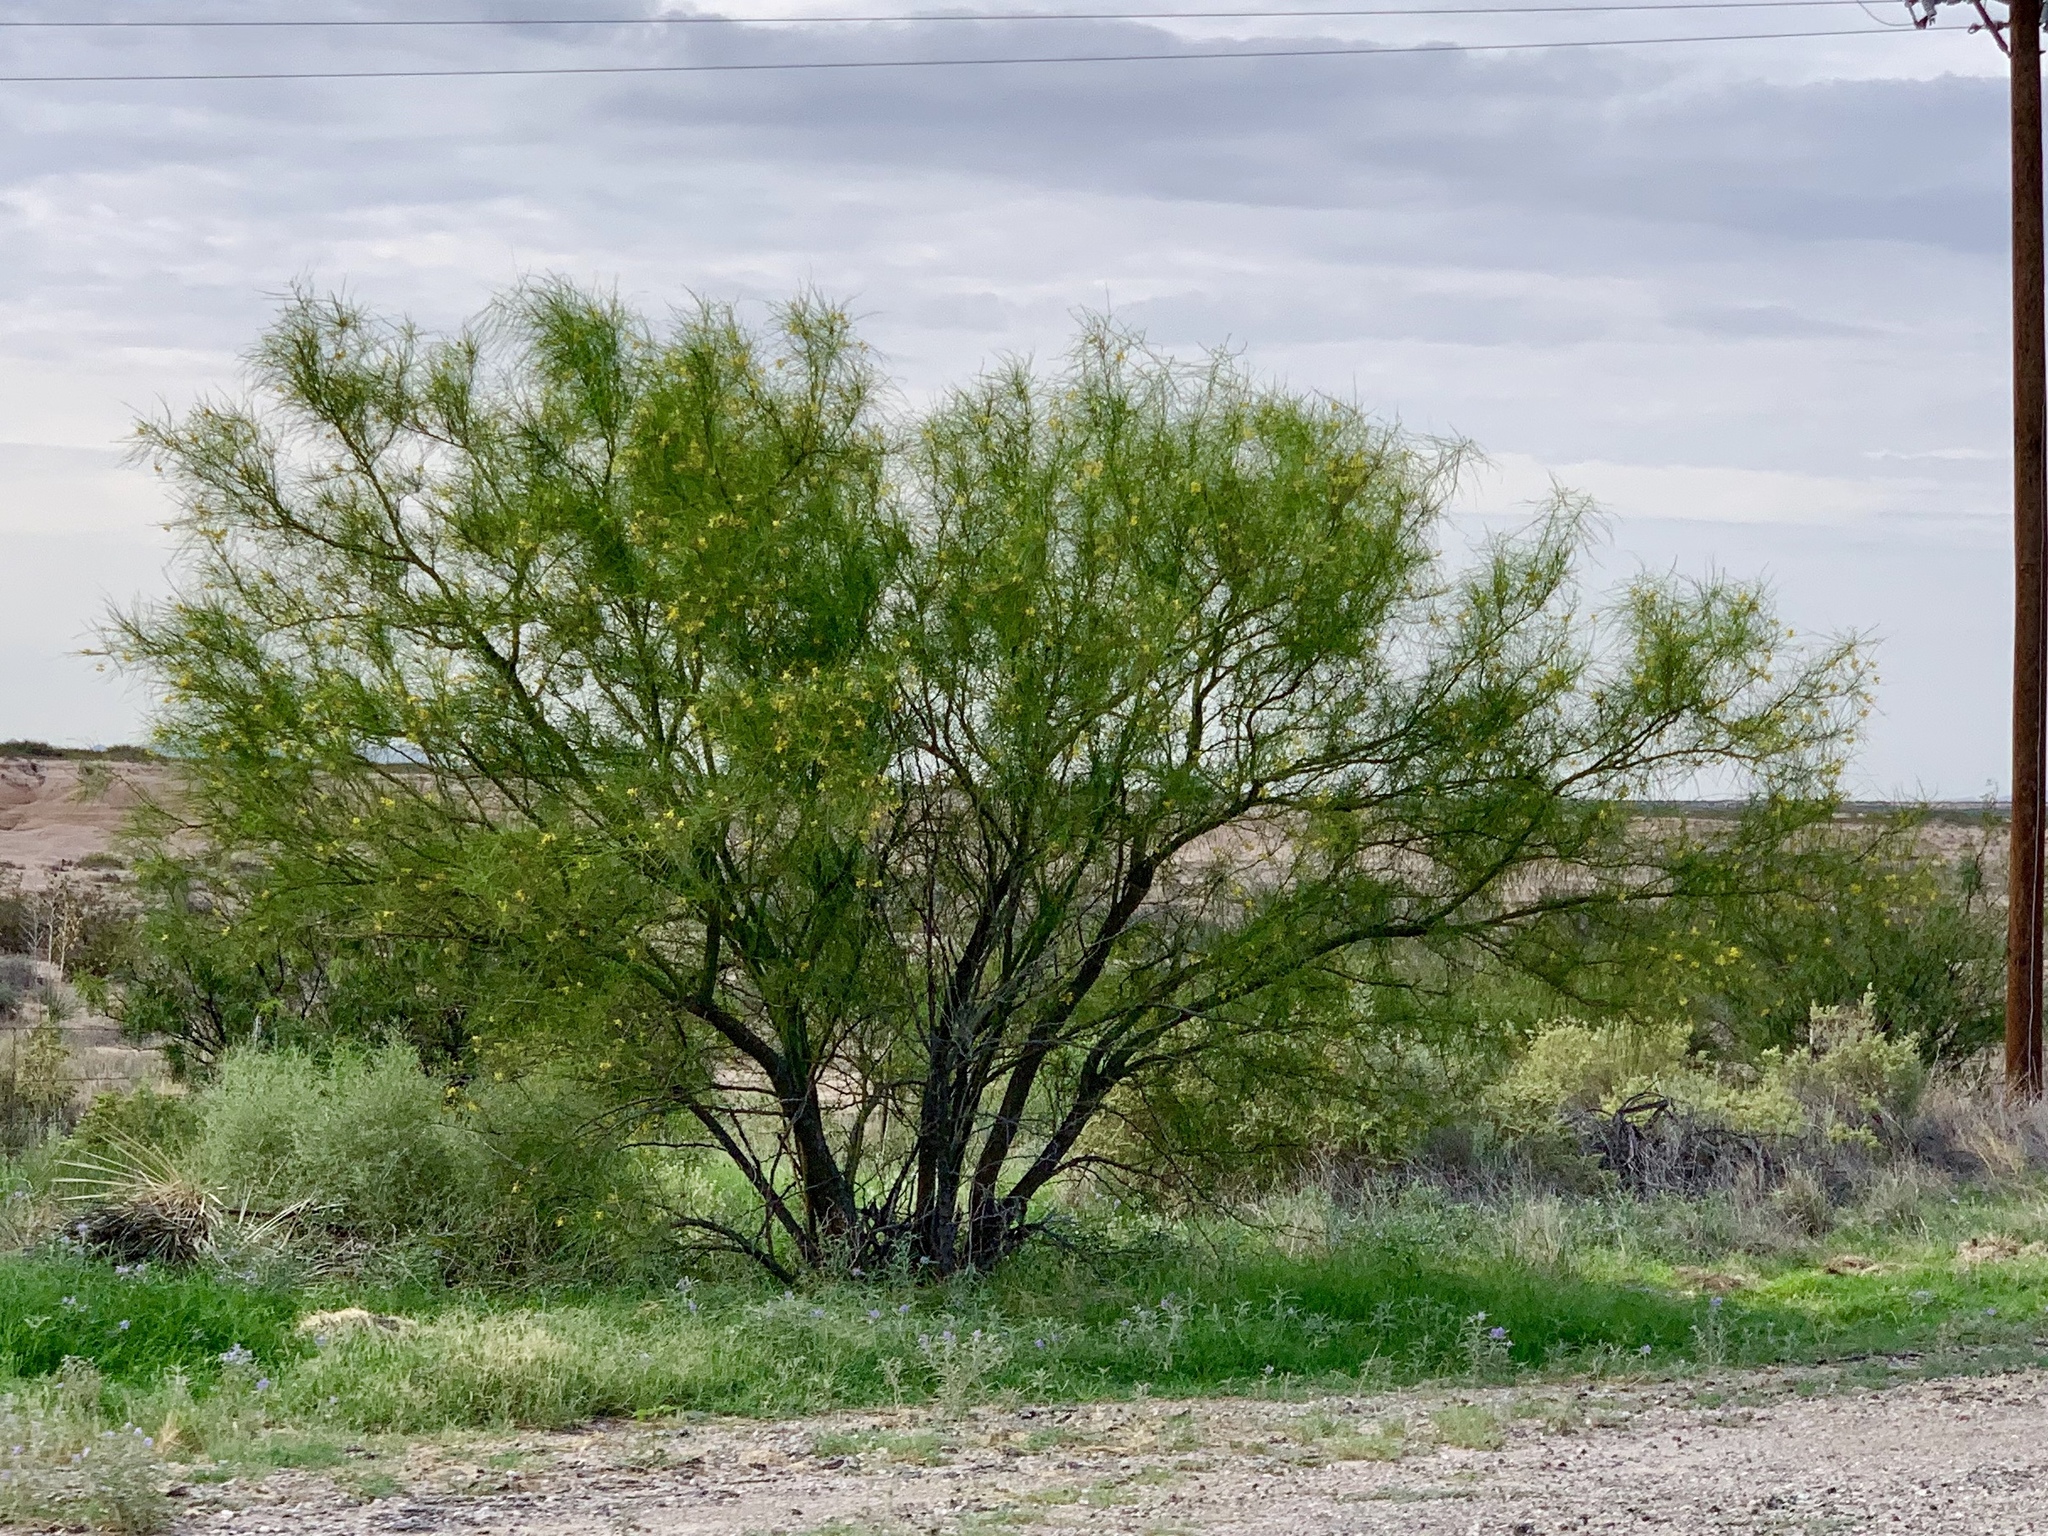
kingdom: Plantae
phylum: Tracheophyta
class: Magnoliopsida
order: Fabales
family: Fabaceae
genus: Parkinsonia
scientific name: Parkinsonia aculeata
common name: Jerusalem thorn
